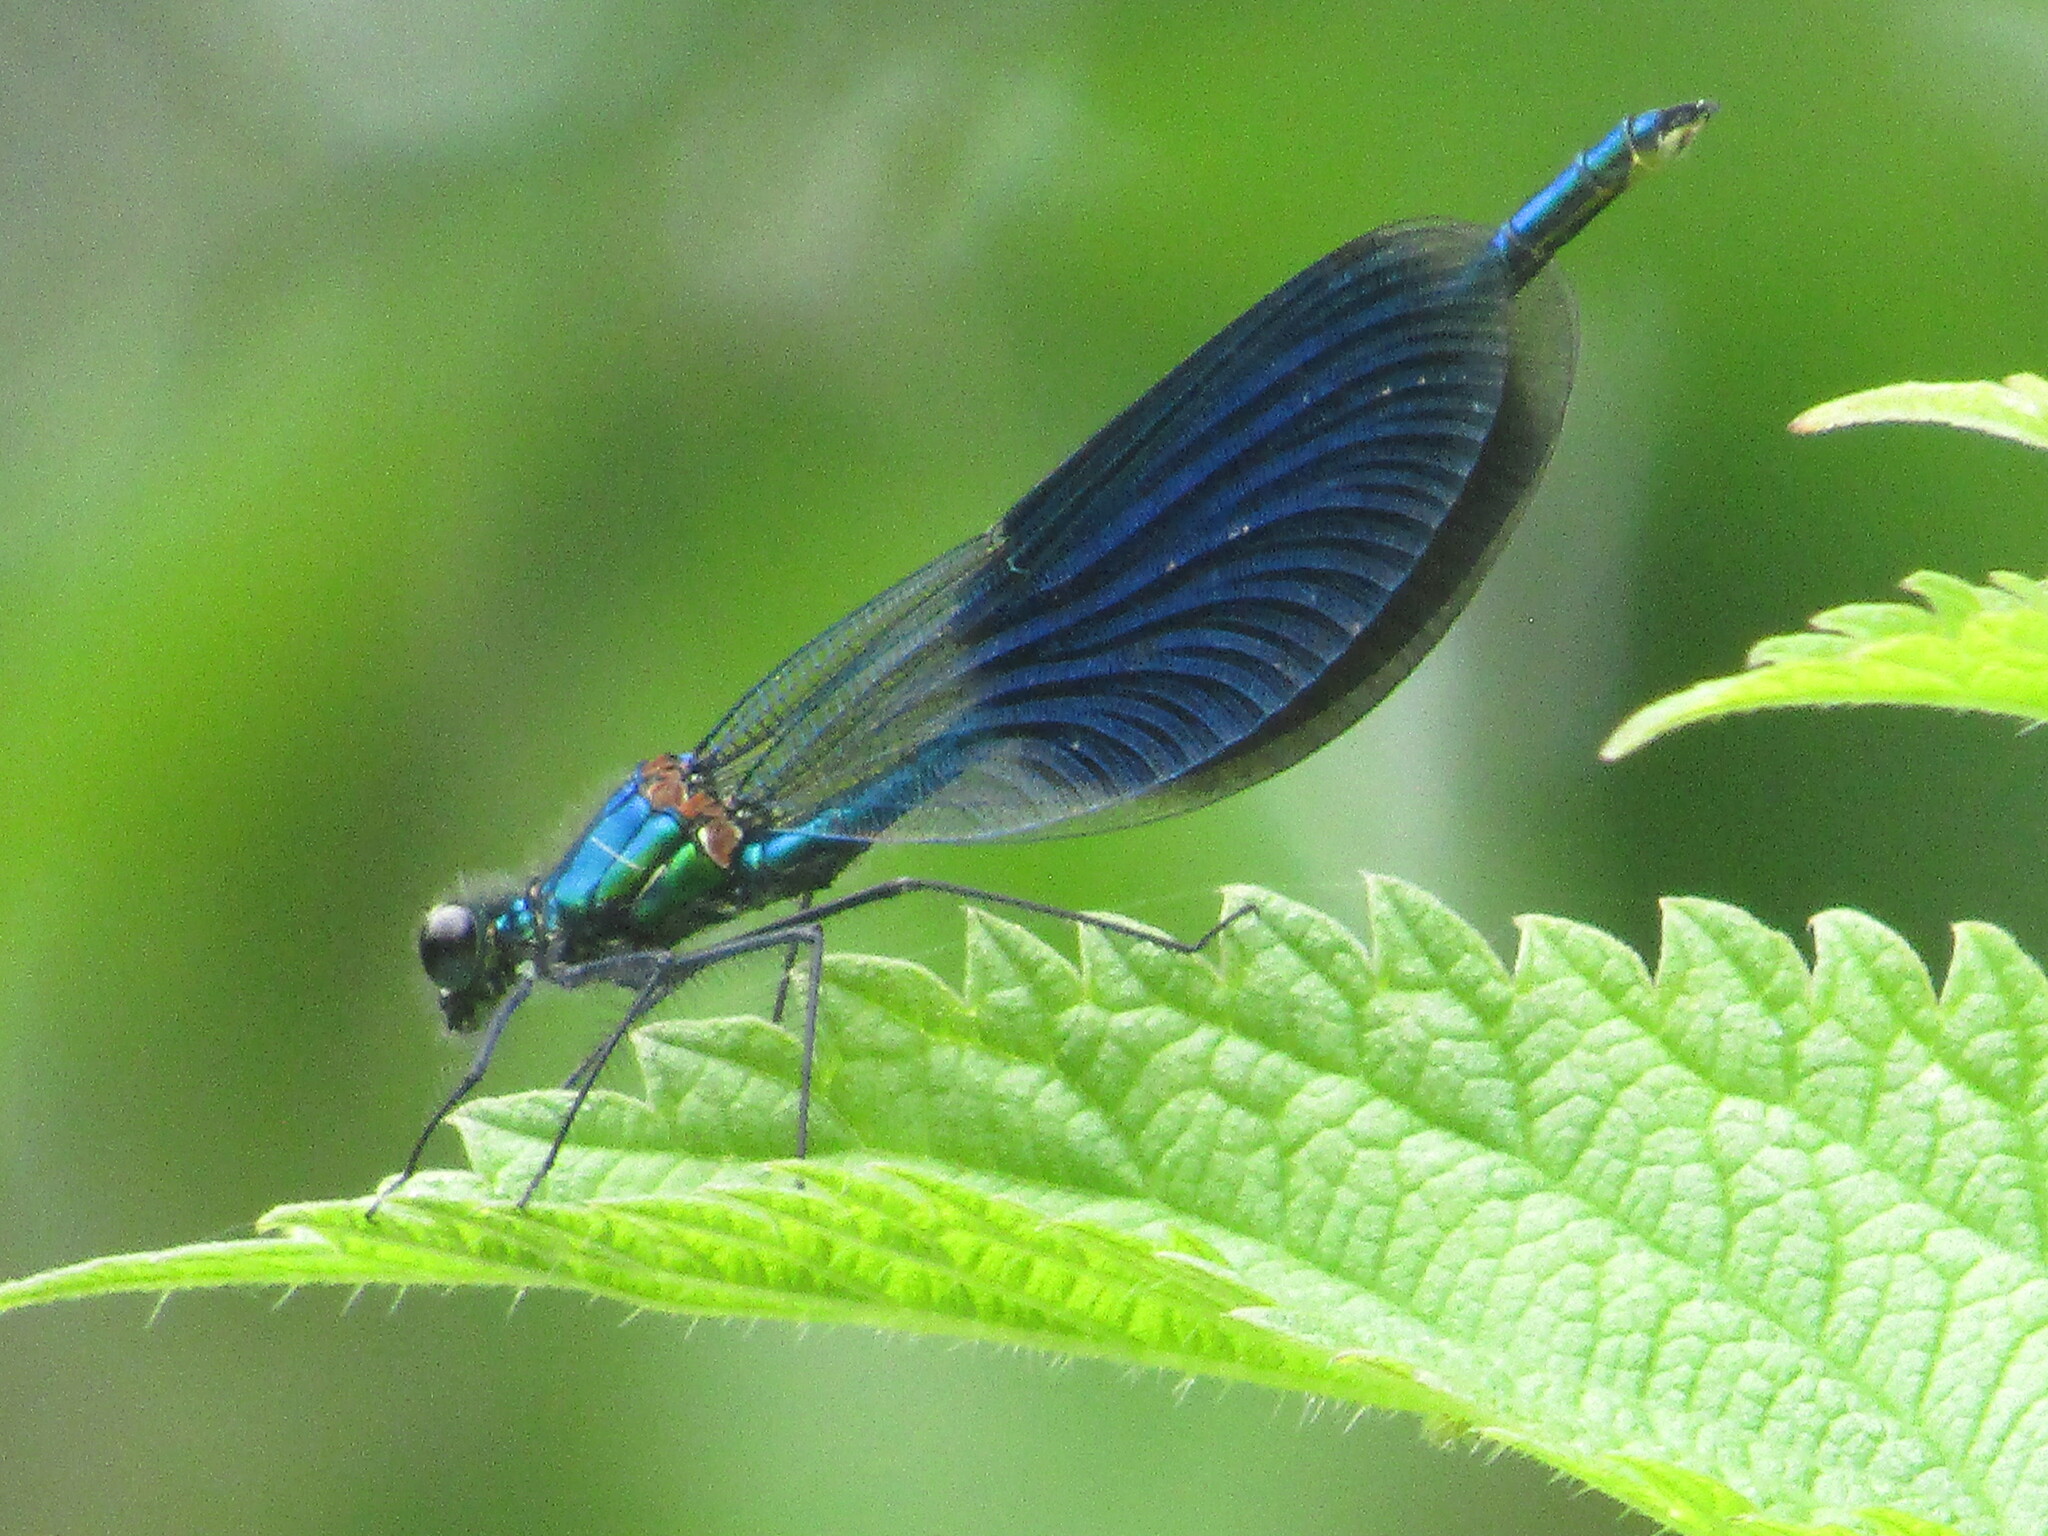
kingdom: Animalia
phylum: Arthropoda
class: Insecta
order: Odonata
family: Calopterygidae
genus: Calopteryx
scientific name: Calopteryx splendens
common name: Banded demoiselle
